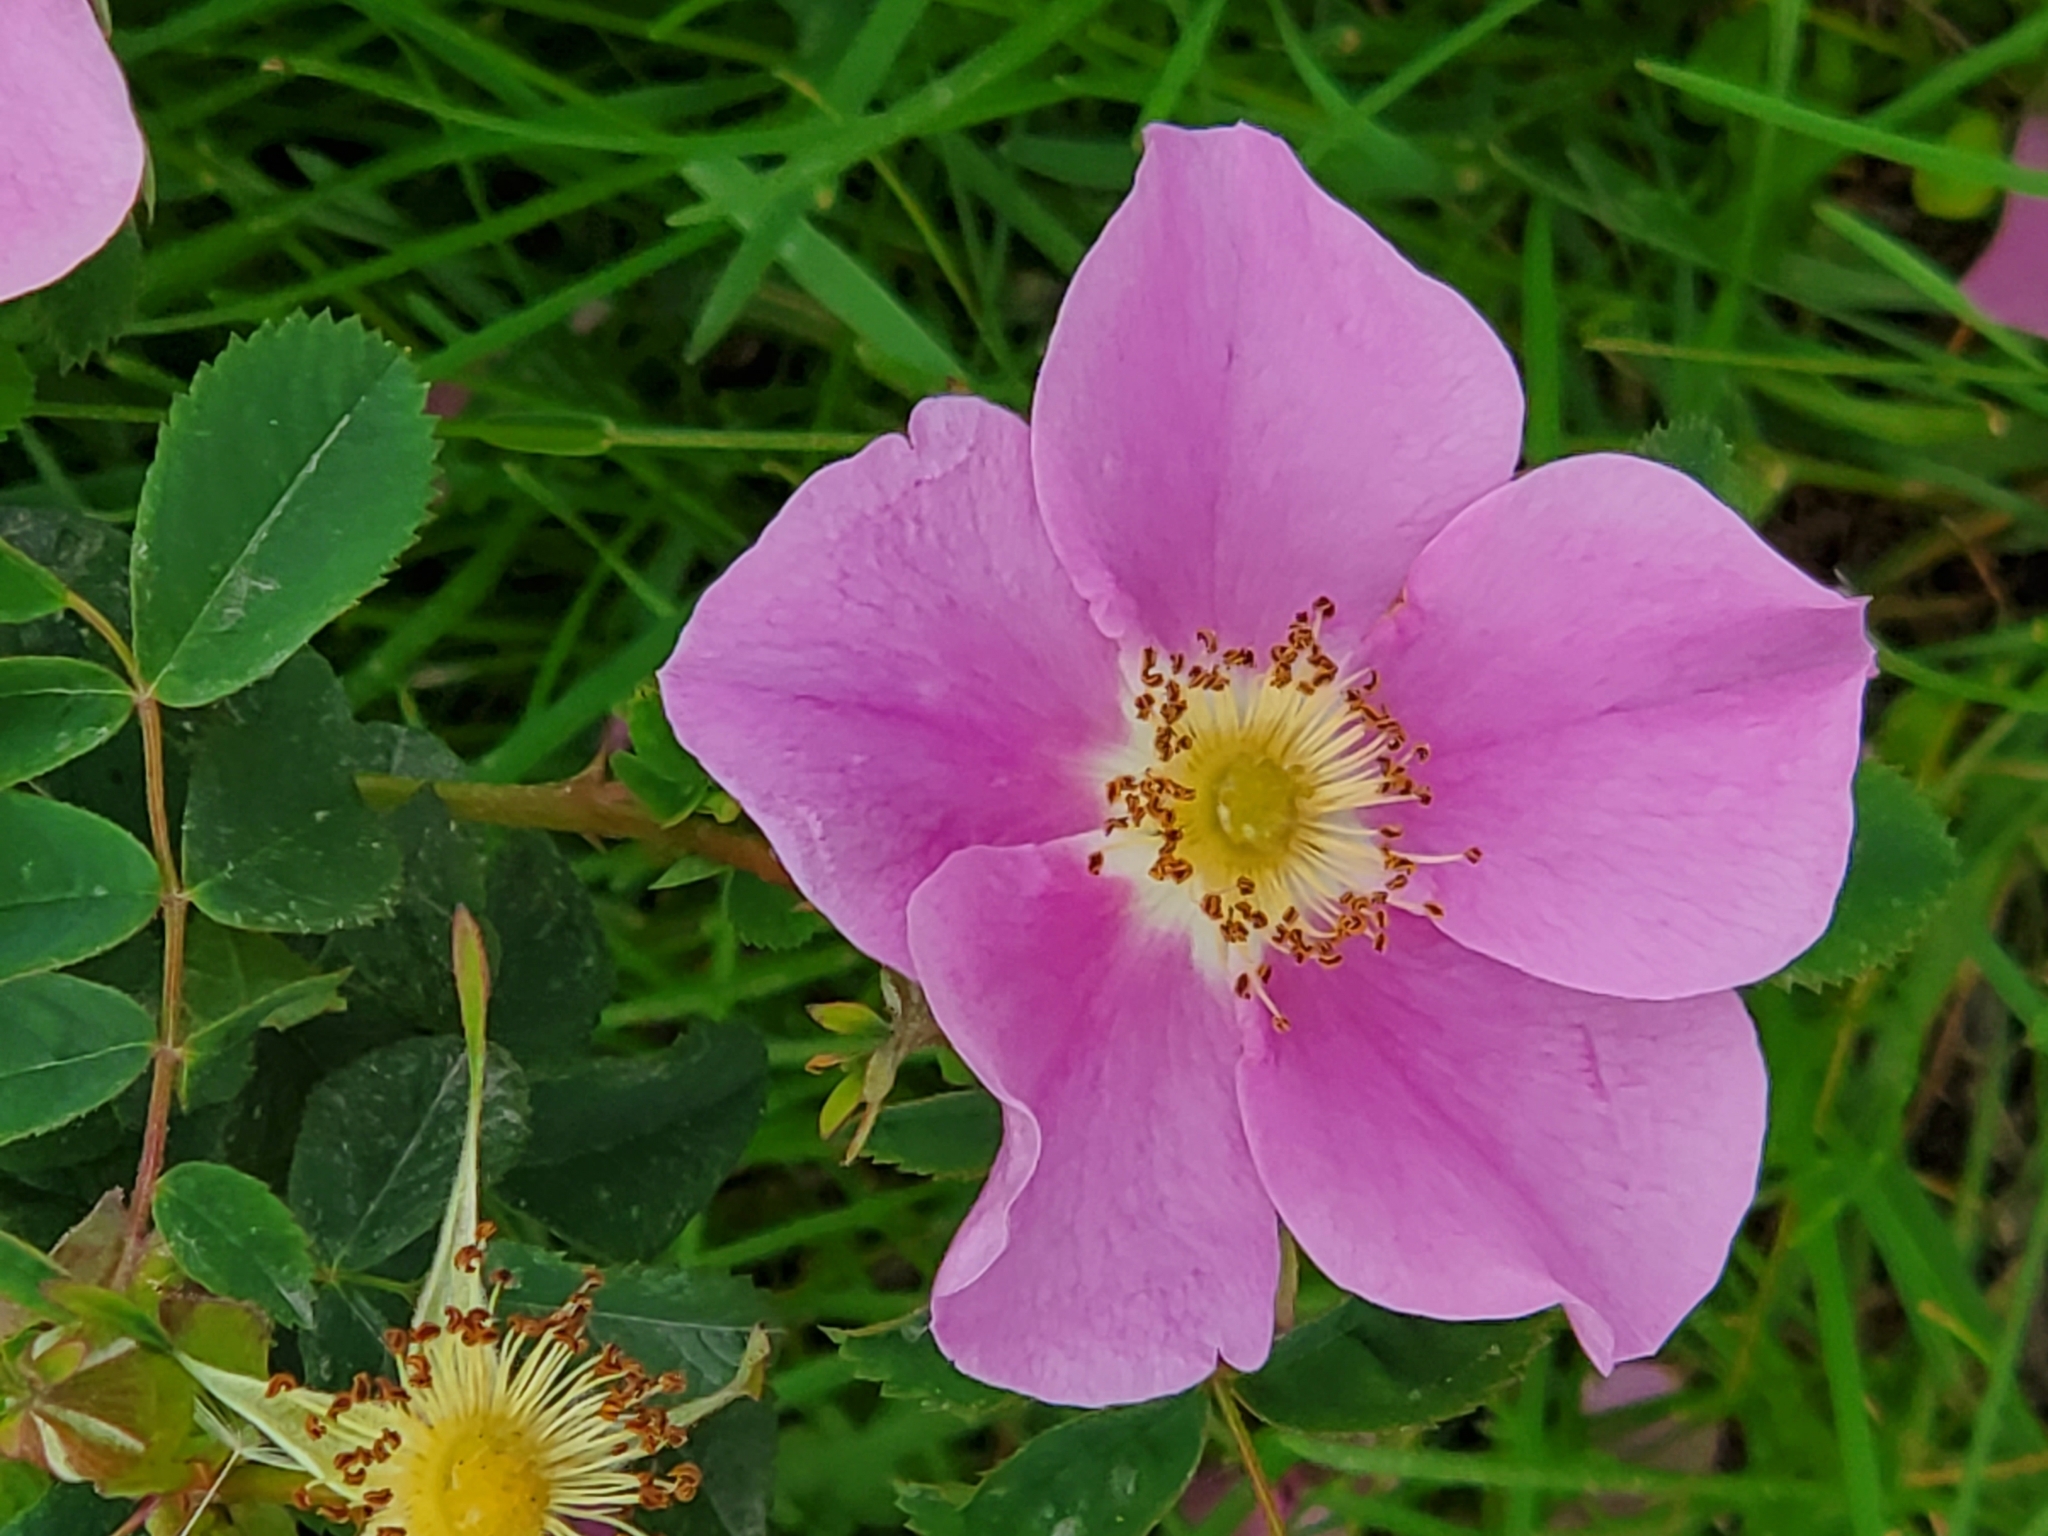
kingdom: Plantae
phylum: Tracheophyta
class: Magnoliopsida
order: Rosales
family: Rosaceae
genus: Rosa
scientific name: Rosa nutkana
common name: Nootka rose
